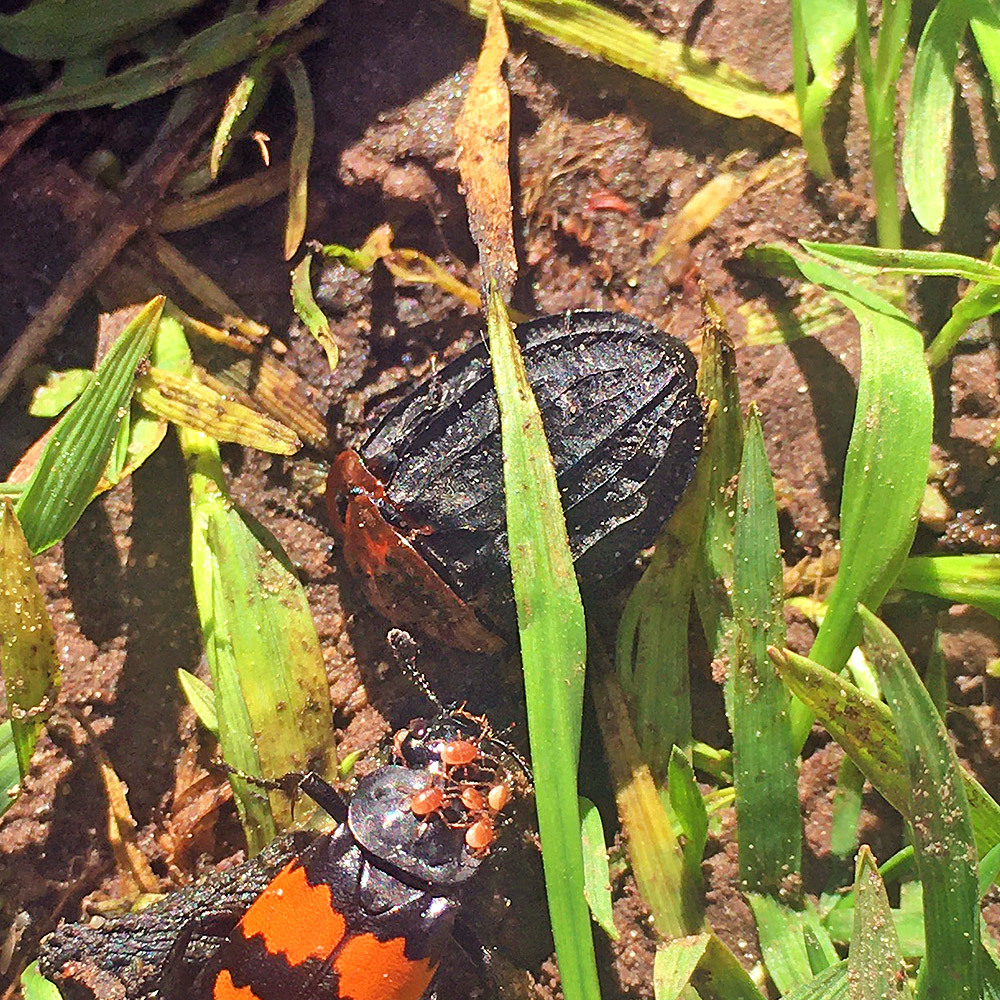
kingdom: Animalia
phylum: Arthropoda
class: Insecta
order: Coleoptera
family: Staphylinidae
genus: Oiceoptoma
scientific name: Oiceoptoma thoracicum
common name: Red-breasted carrion beetle
